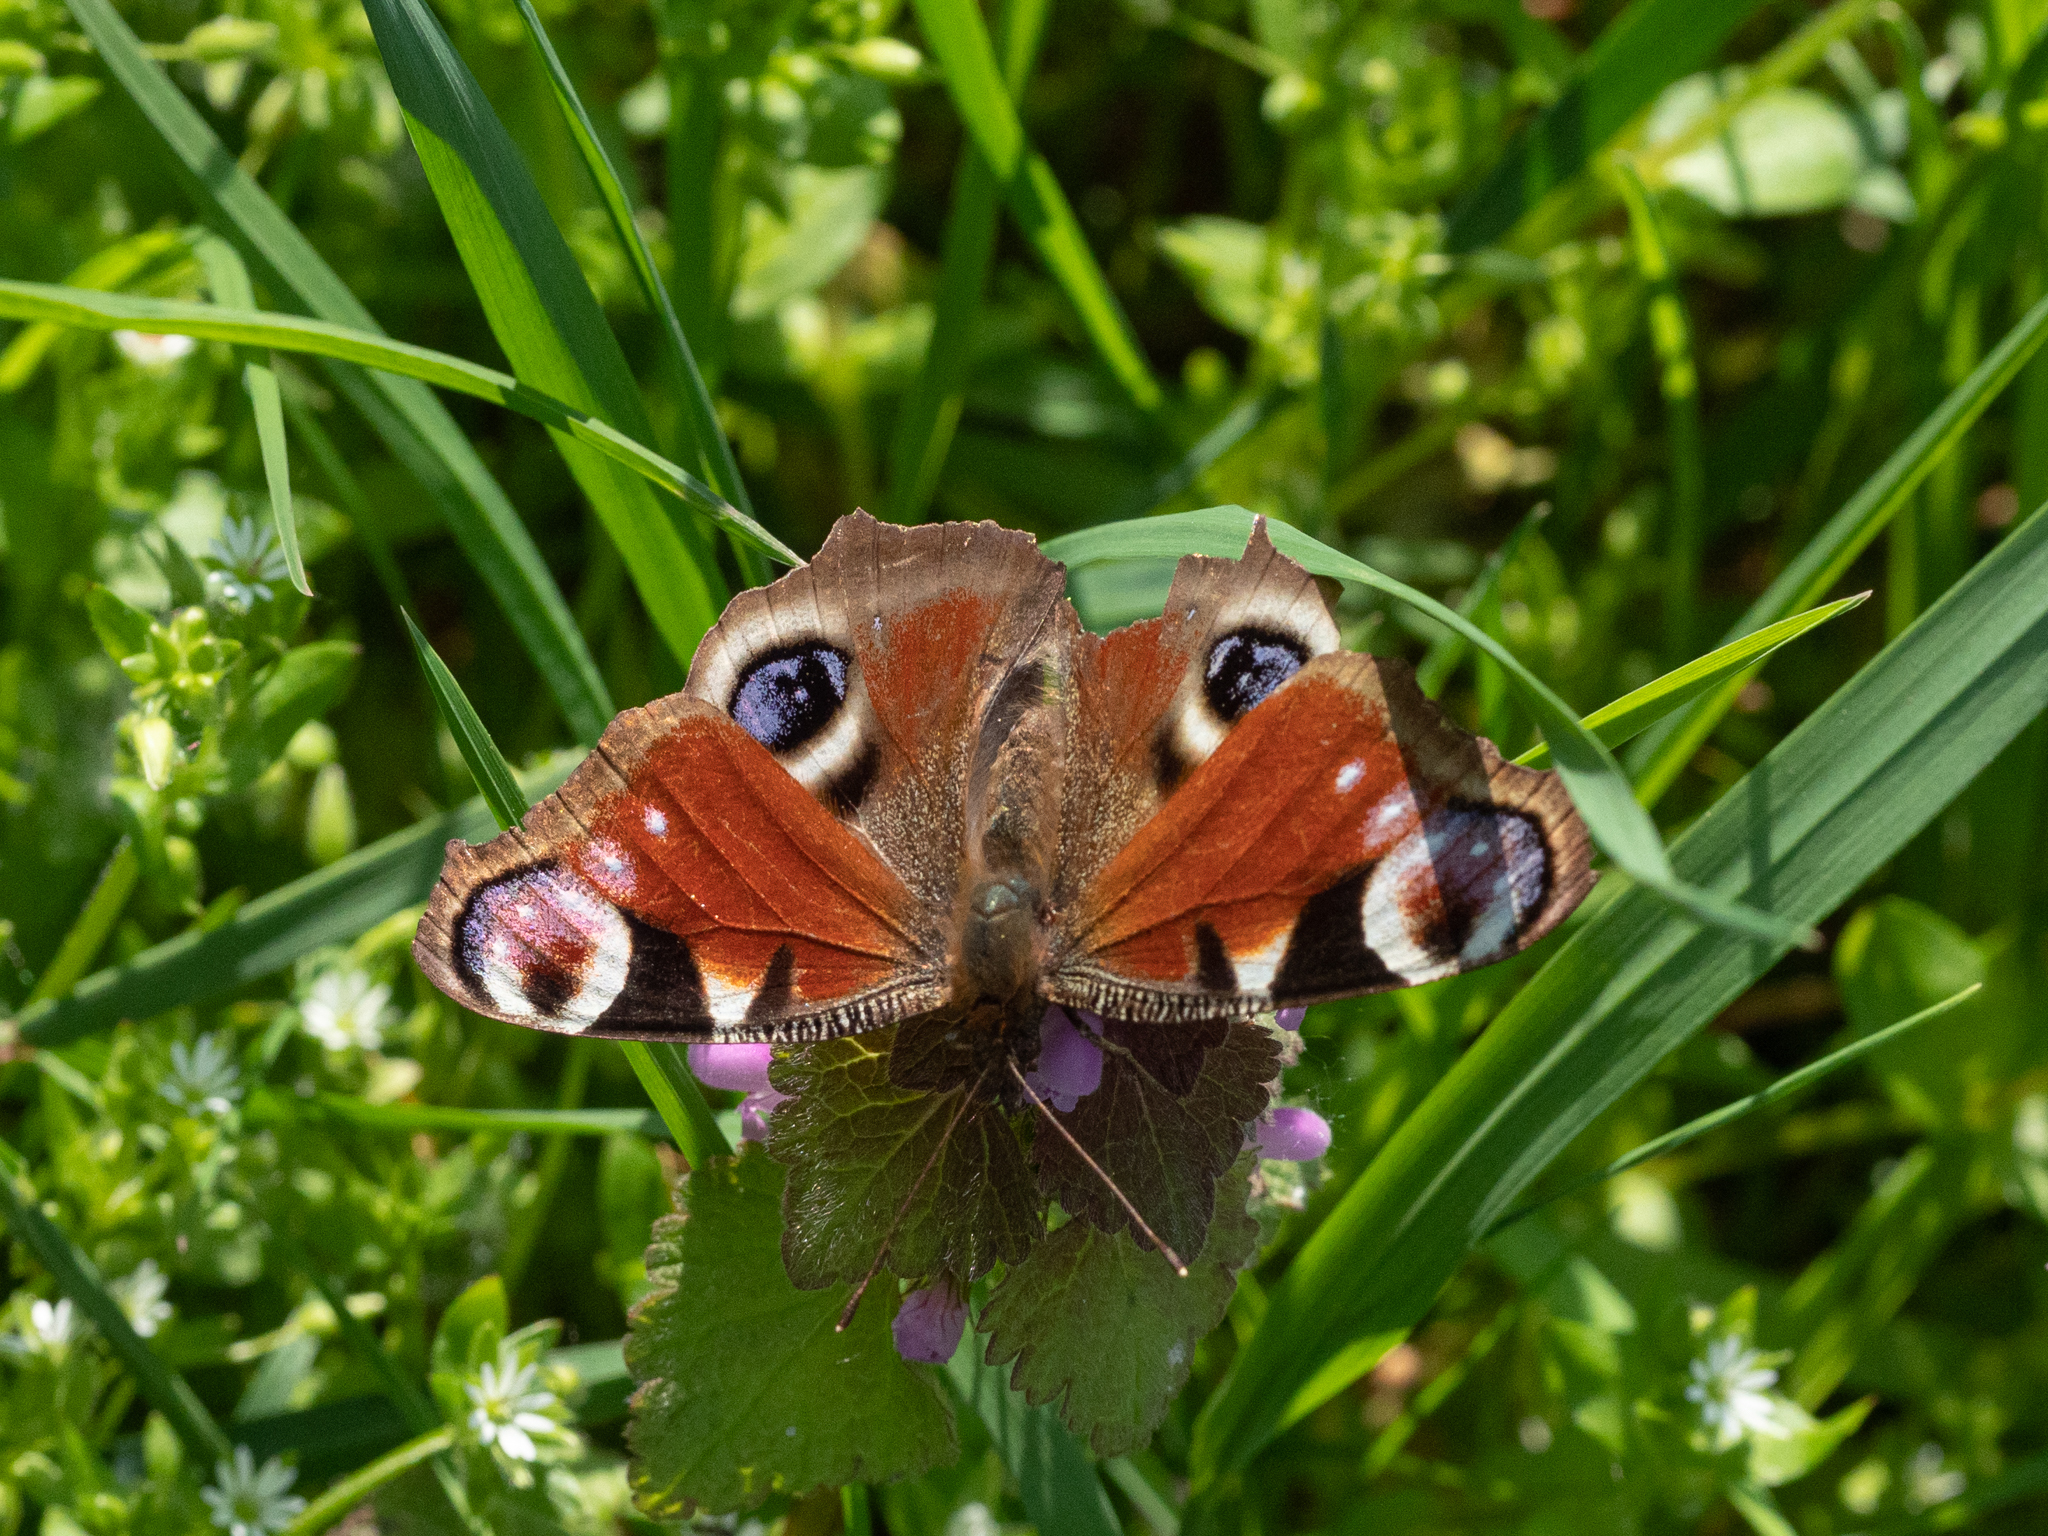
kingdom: Animalia
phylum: Arthropoda
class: Insecta
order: Lepidoptera
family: Nymphalidae
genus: Aglais
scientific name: Aglais io
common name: Peacock
